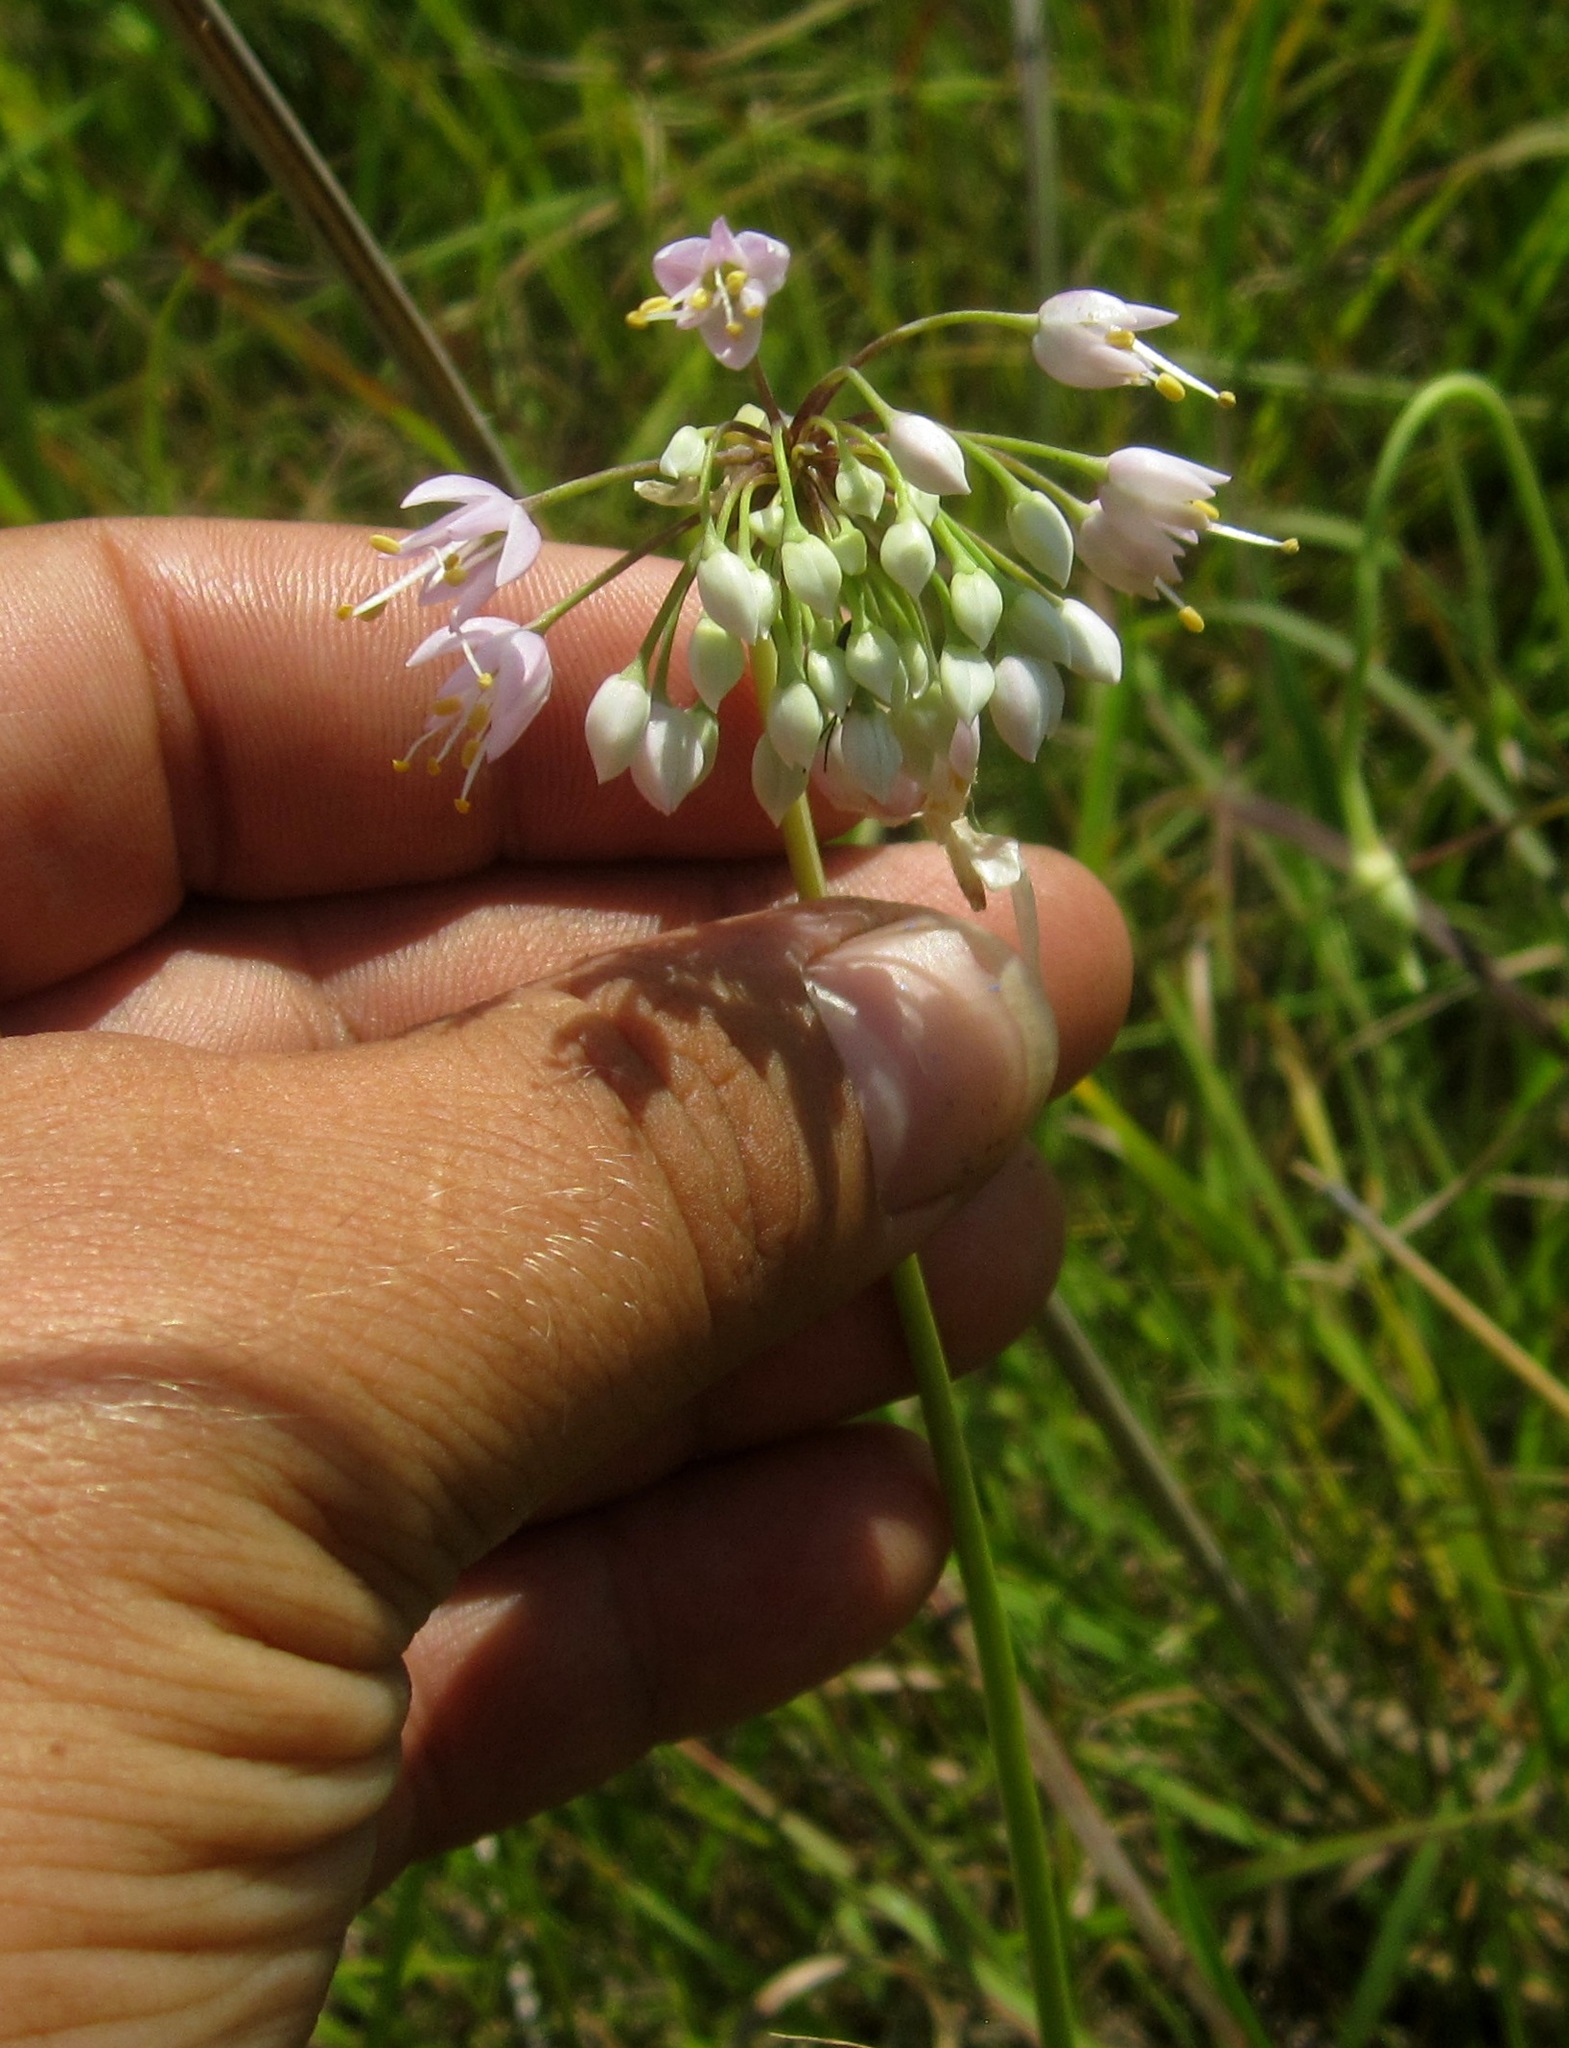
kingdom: Plantae
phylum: Tracheophyta
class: Liliopsida
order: Asparagales
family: Amaryllidaceae
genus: Allium
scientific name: Allium cernuum
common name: Nodding onion
